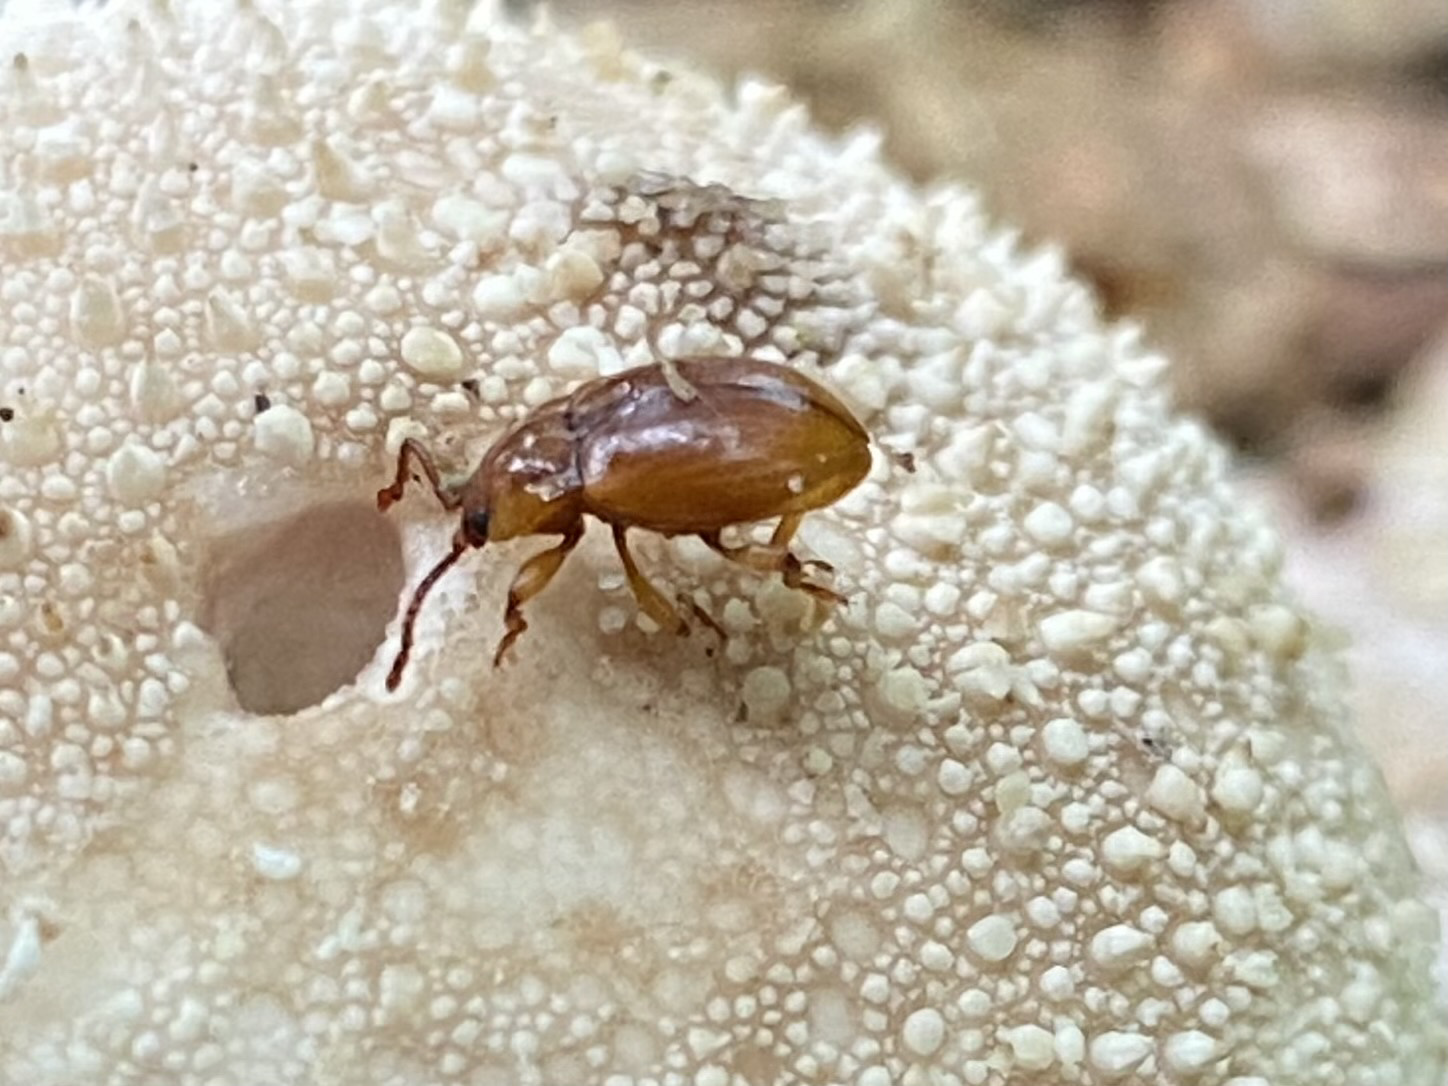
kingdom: Animalia
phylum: Arthropoda
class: Insecta
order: Coleoptera
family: Endomychidae
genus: Lycoperdina
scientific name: Lycoperdina ferruginea
